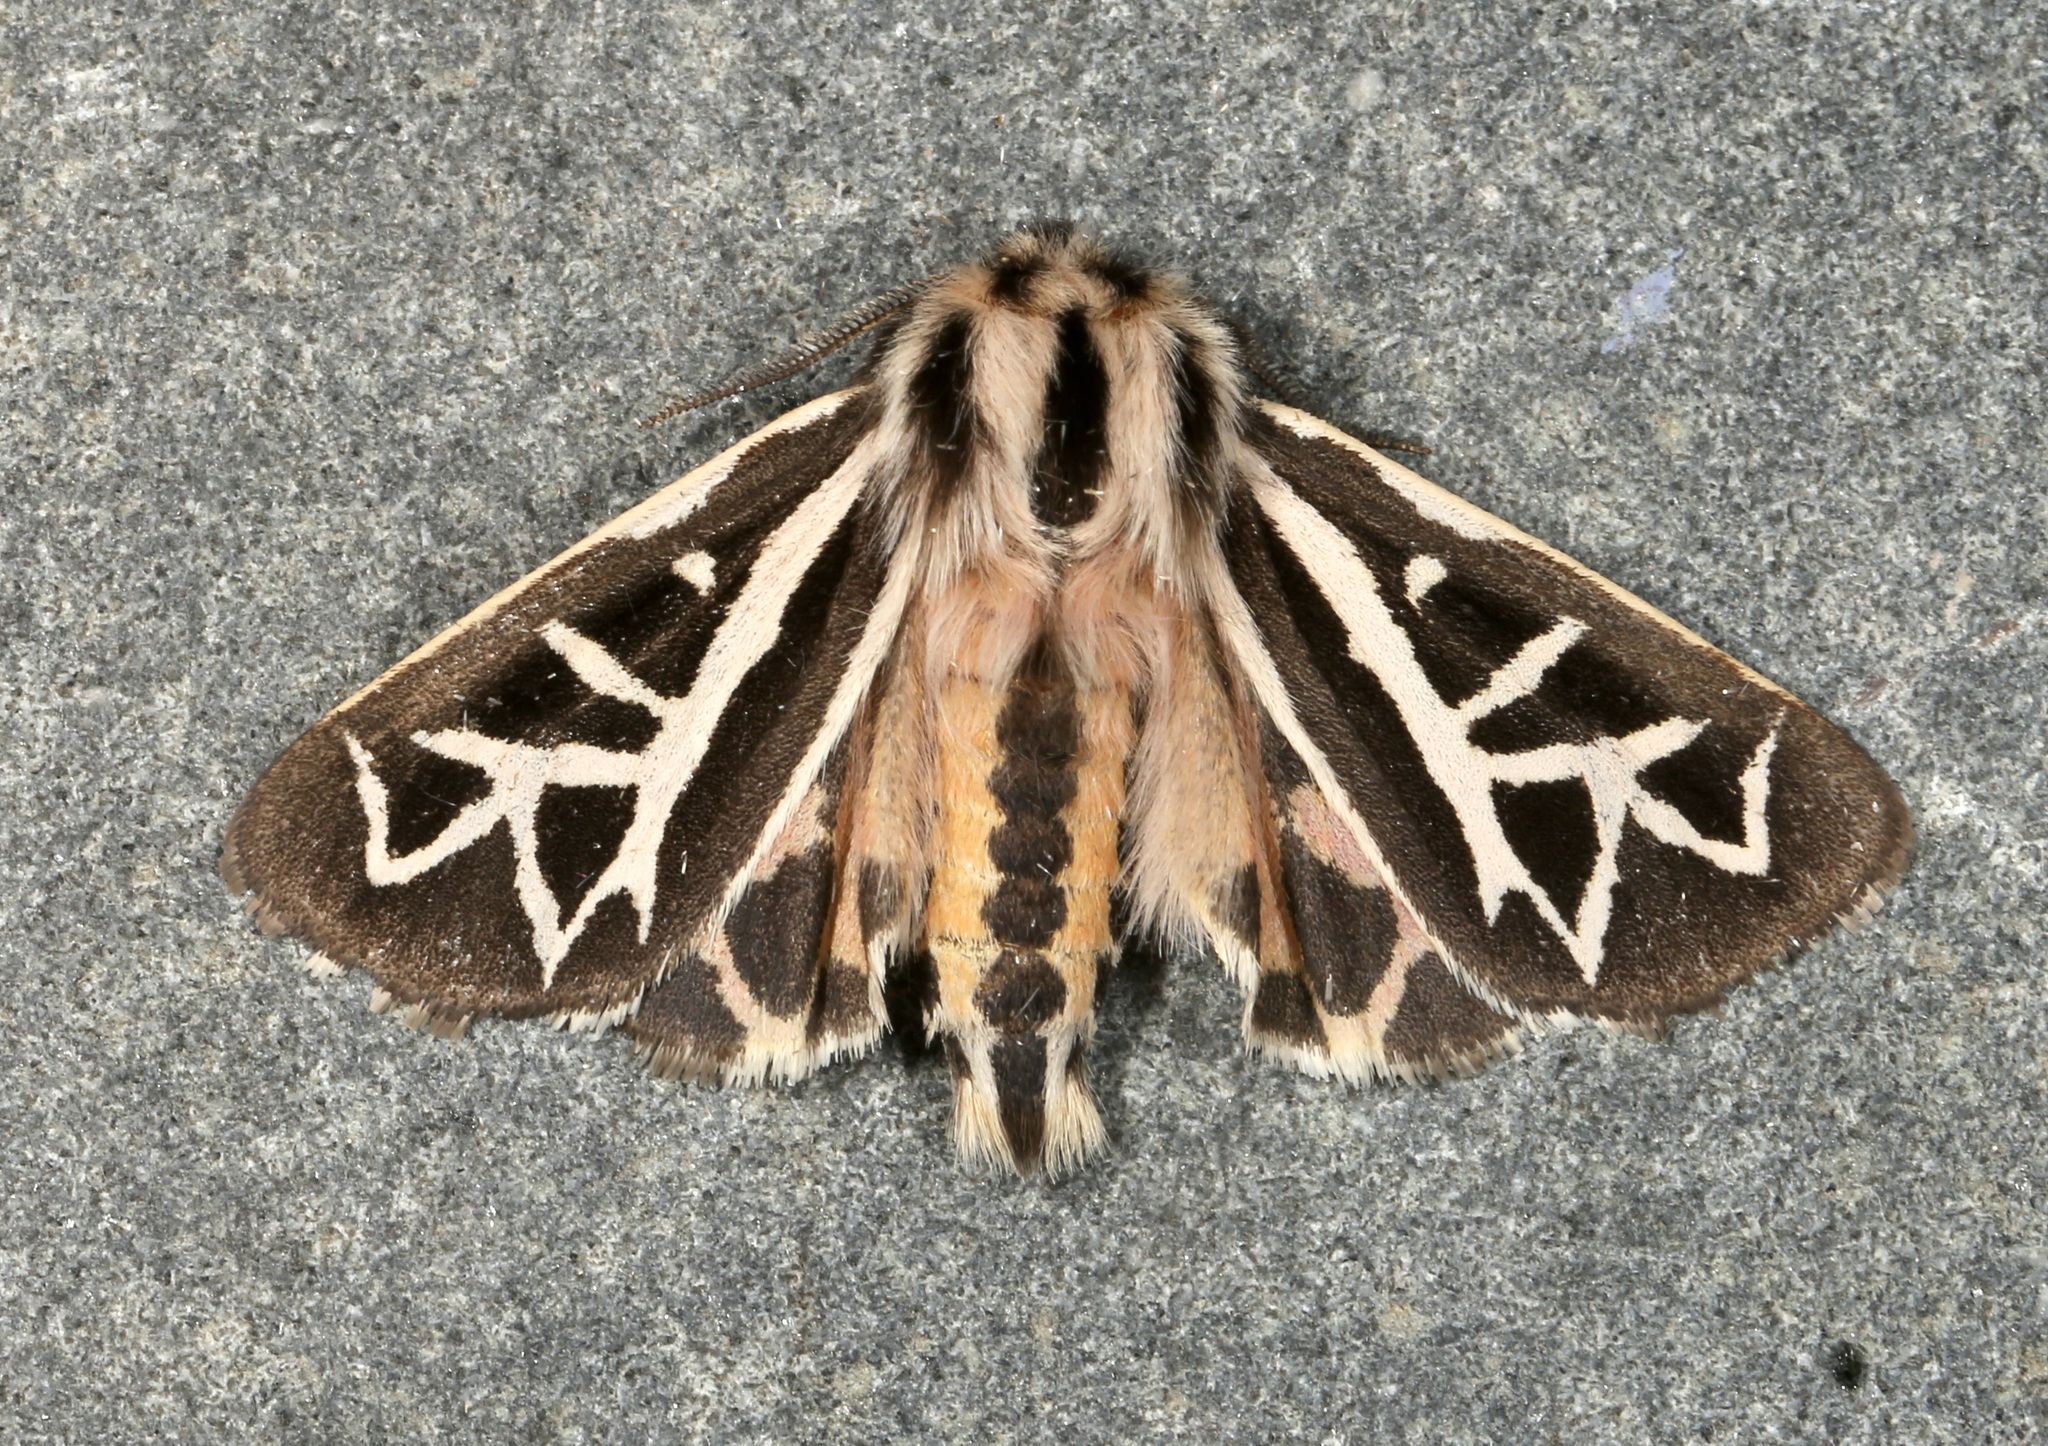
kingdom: Animalia
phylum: Arthropoda
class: Insecta
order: Lepidoptera
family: Erebidae
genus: Apantesis
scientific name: Apantesis
